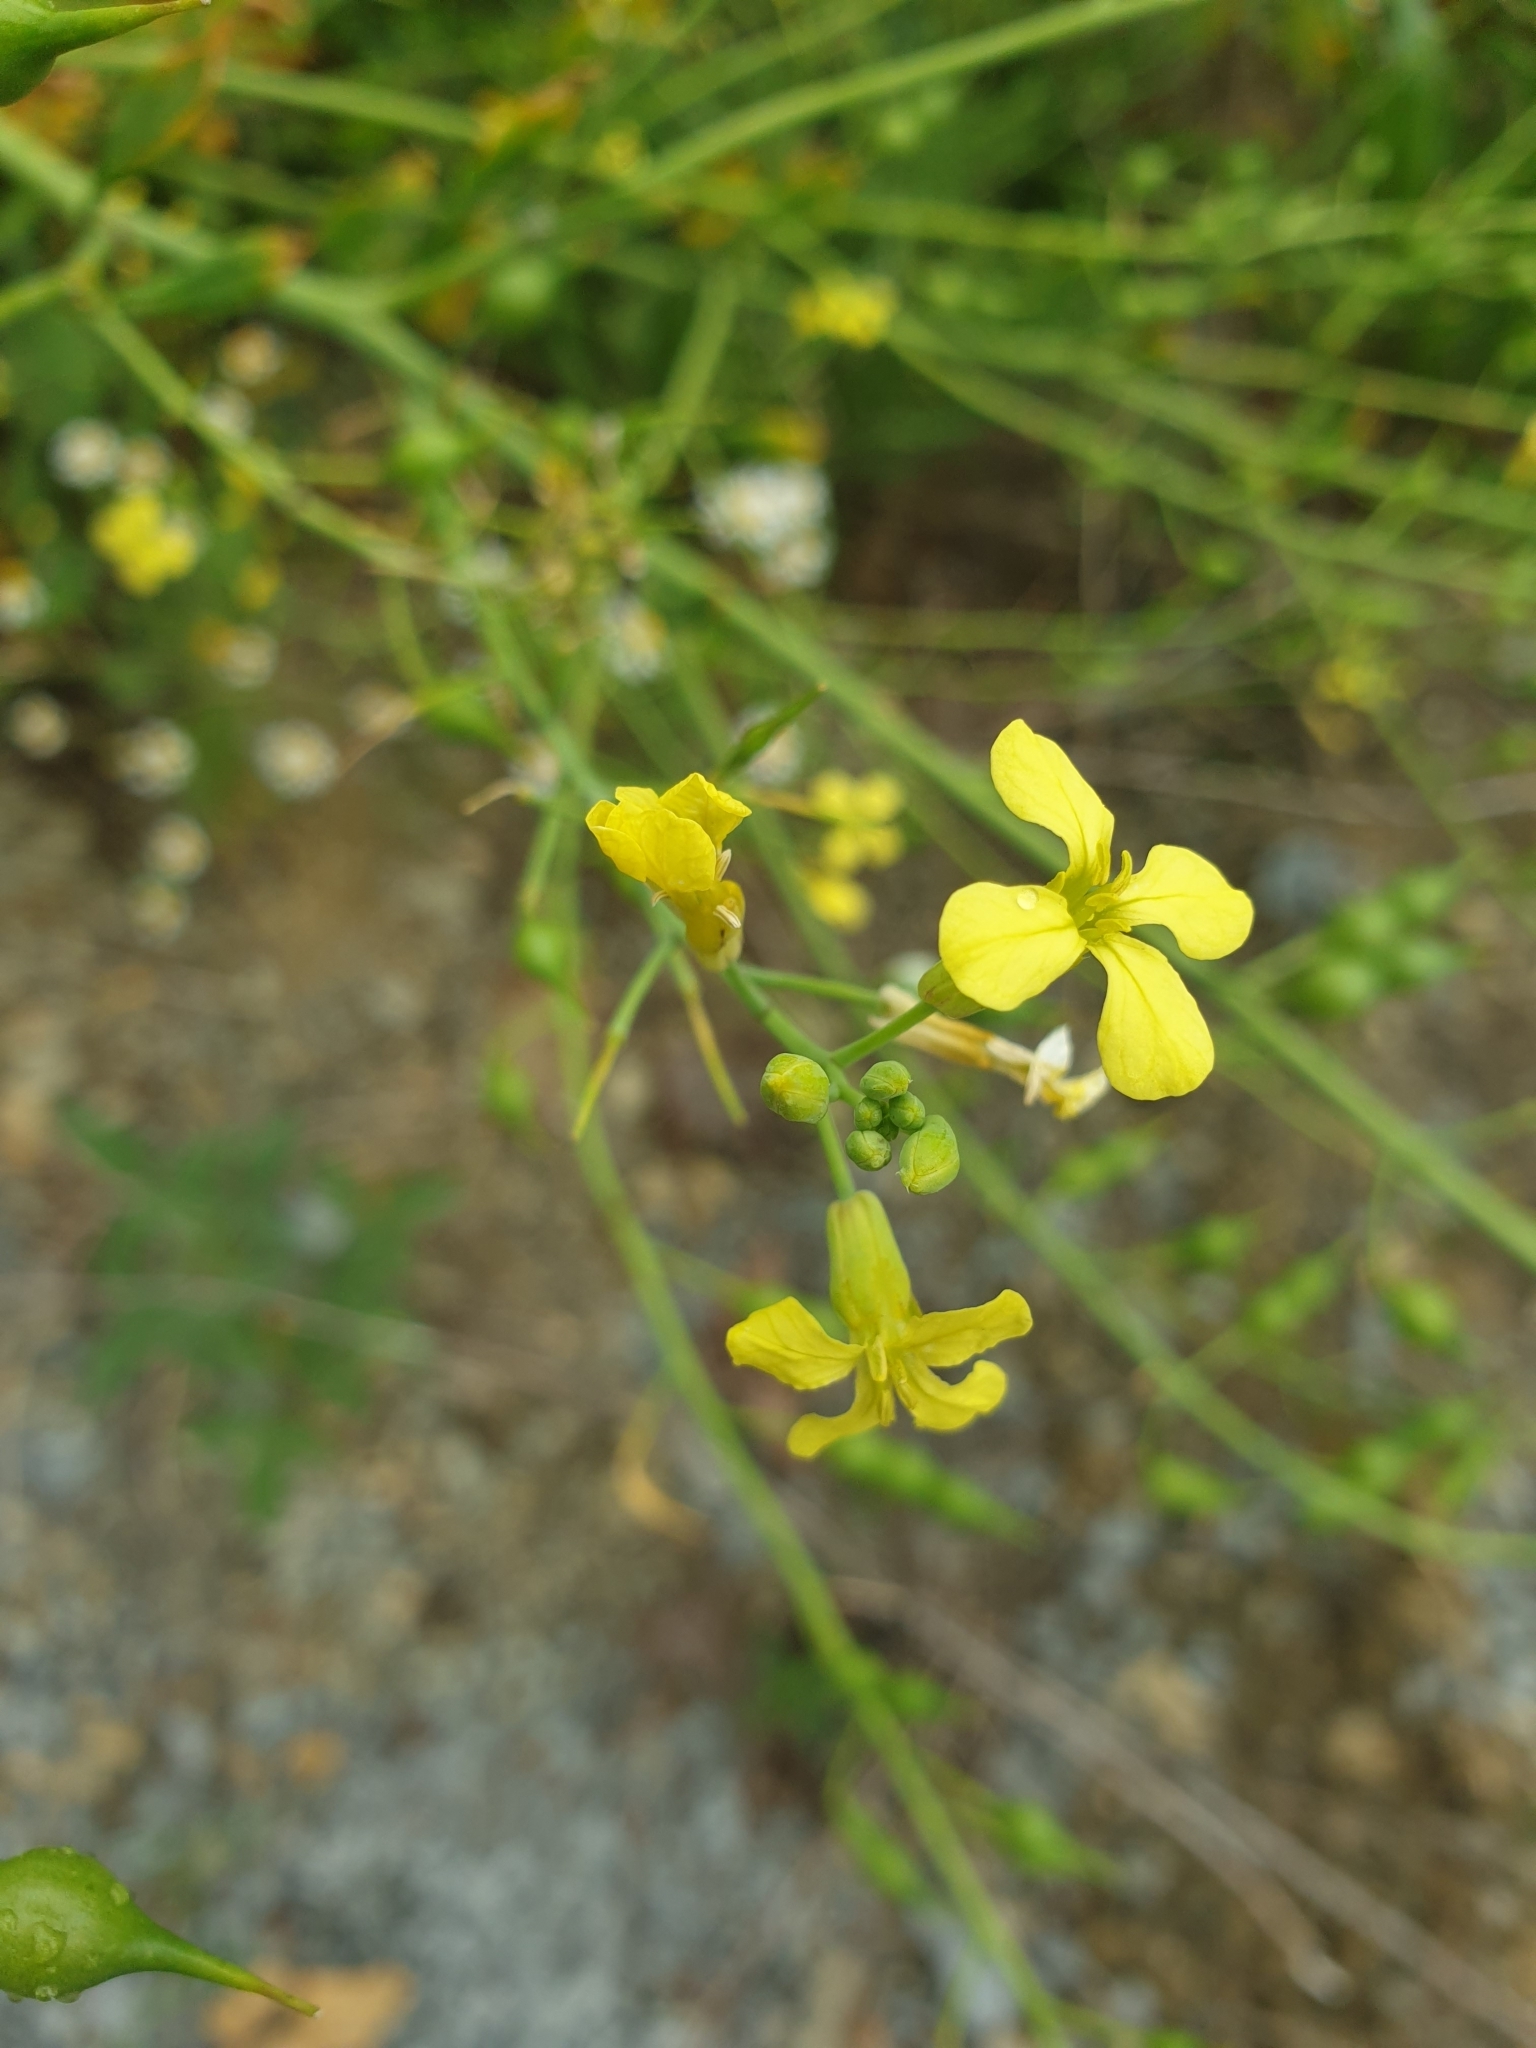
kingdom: Plantae
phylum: Tracheophyta
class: Magnoliopsida
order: Brassicales
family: Brassicaceae
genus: Raphanus
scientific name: Raphanus raphanistrum
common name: Wild radish
